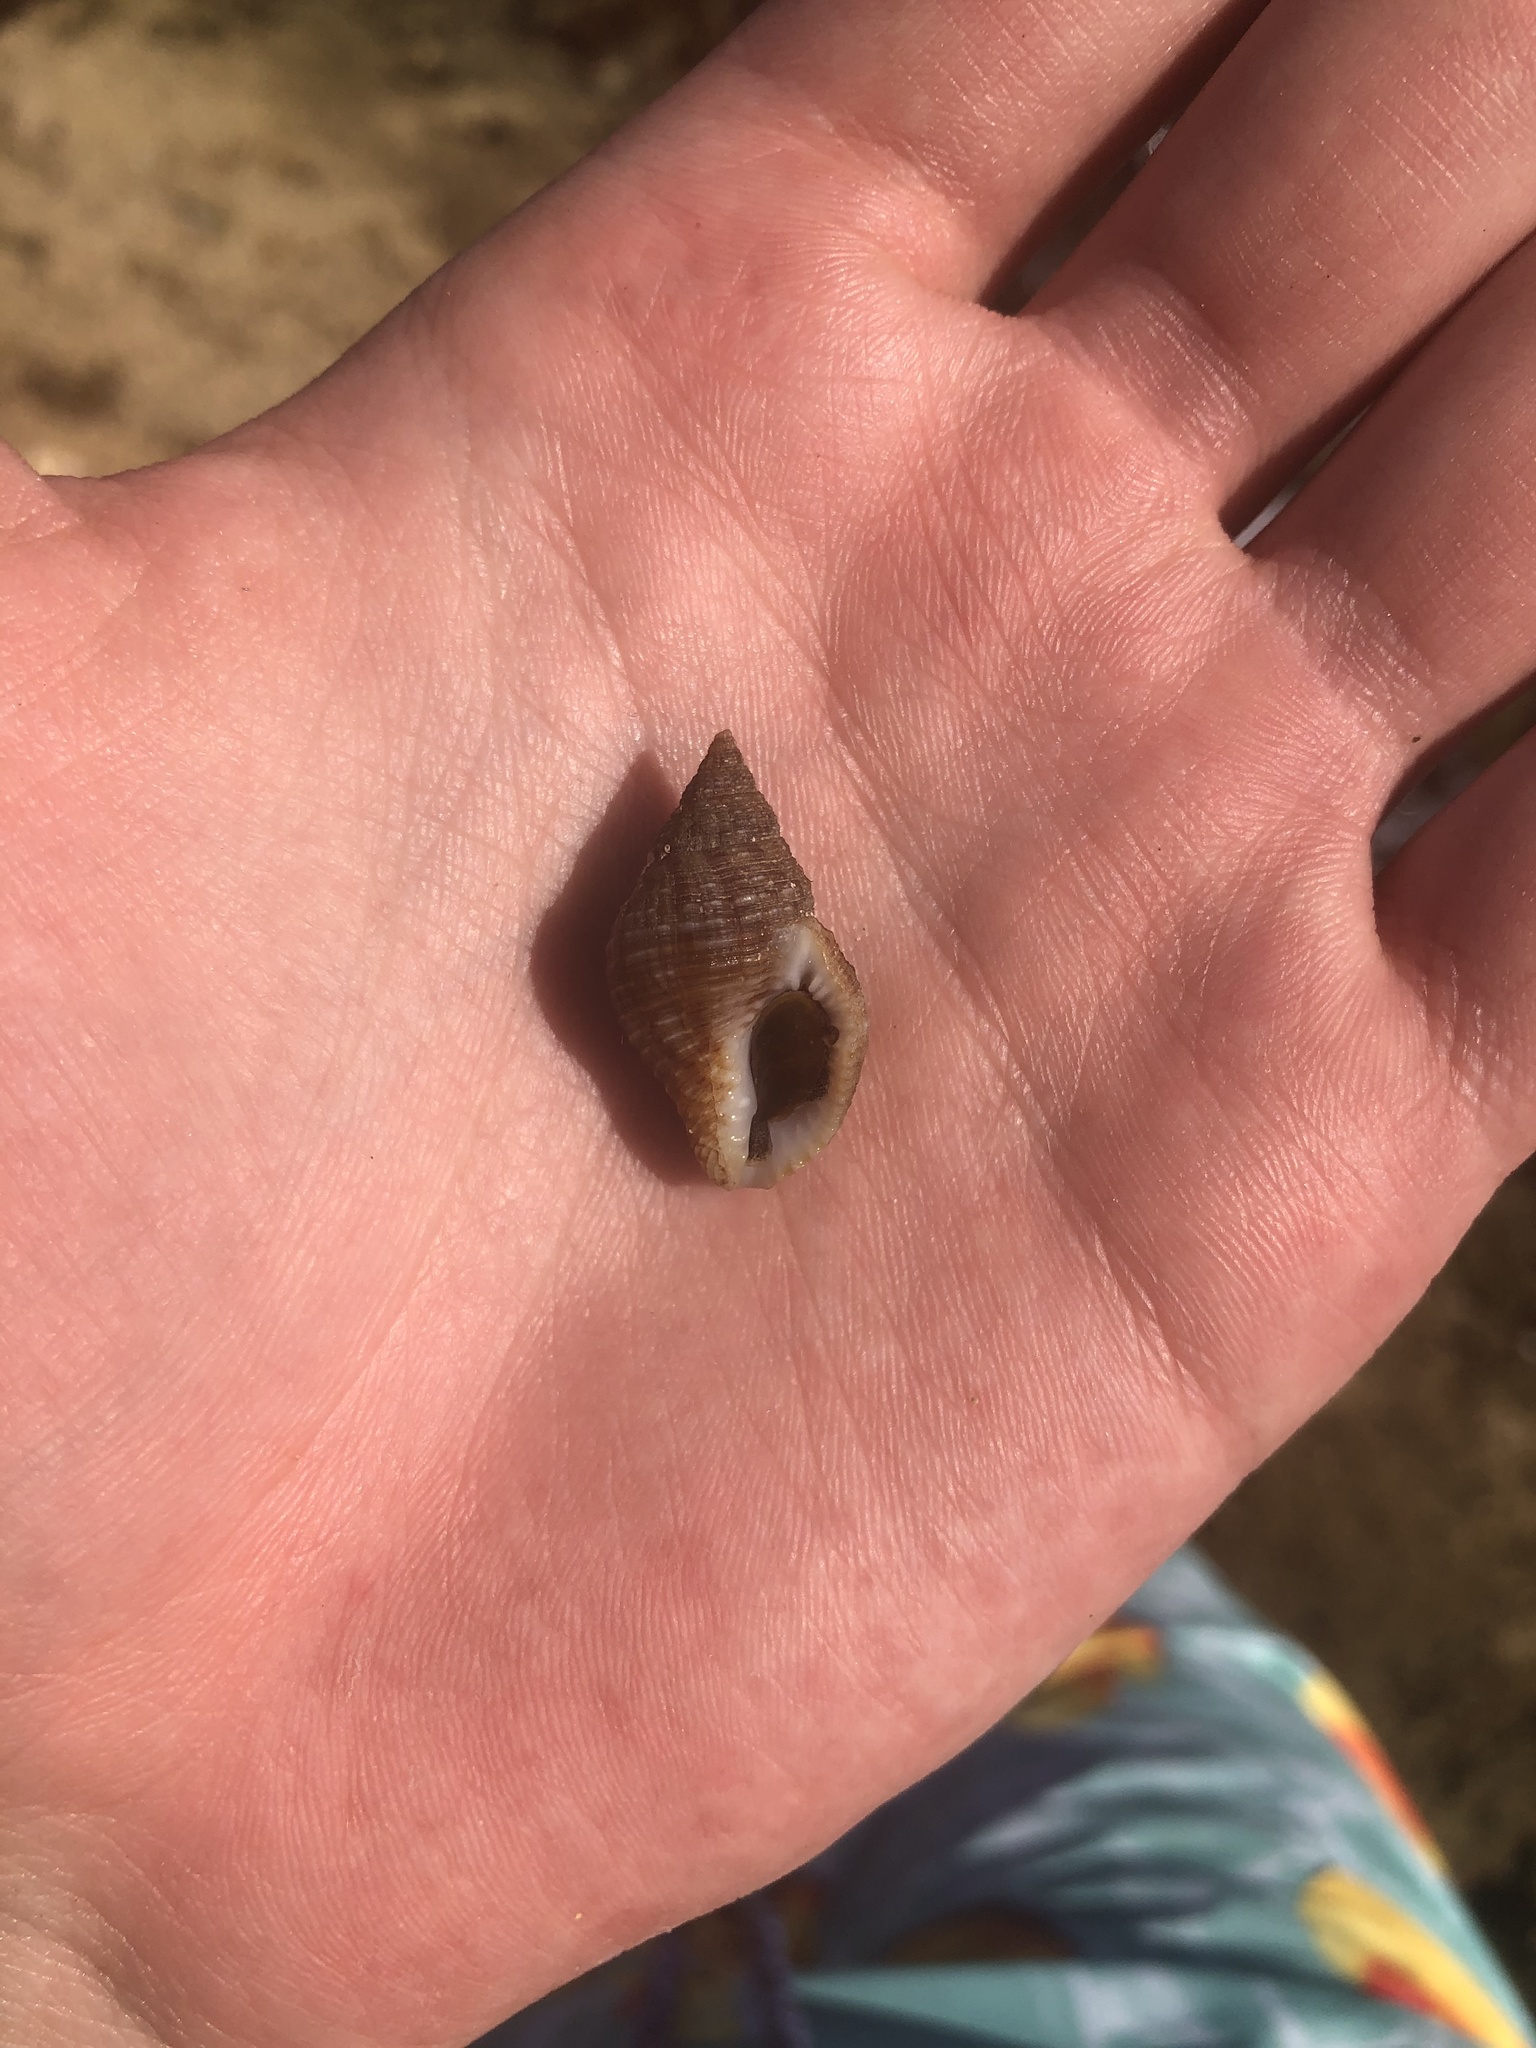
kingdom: Animalia
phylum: Mollusca
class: Gastropoda
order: Neogastropoda
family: Pisaniidae
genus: Gemophos
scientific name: Gemophos tinctus
